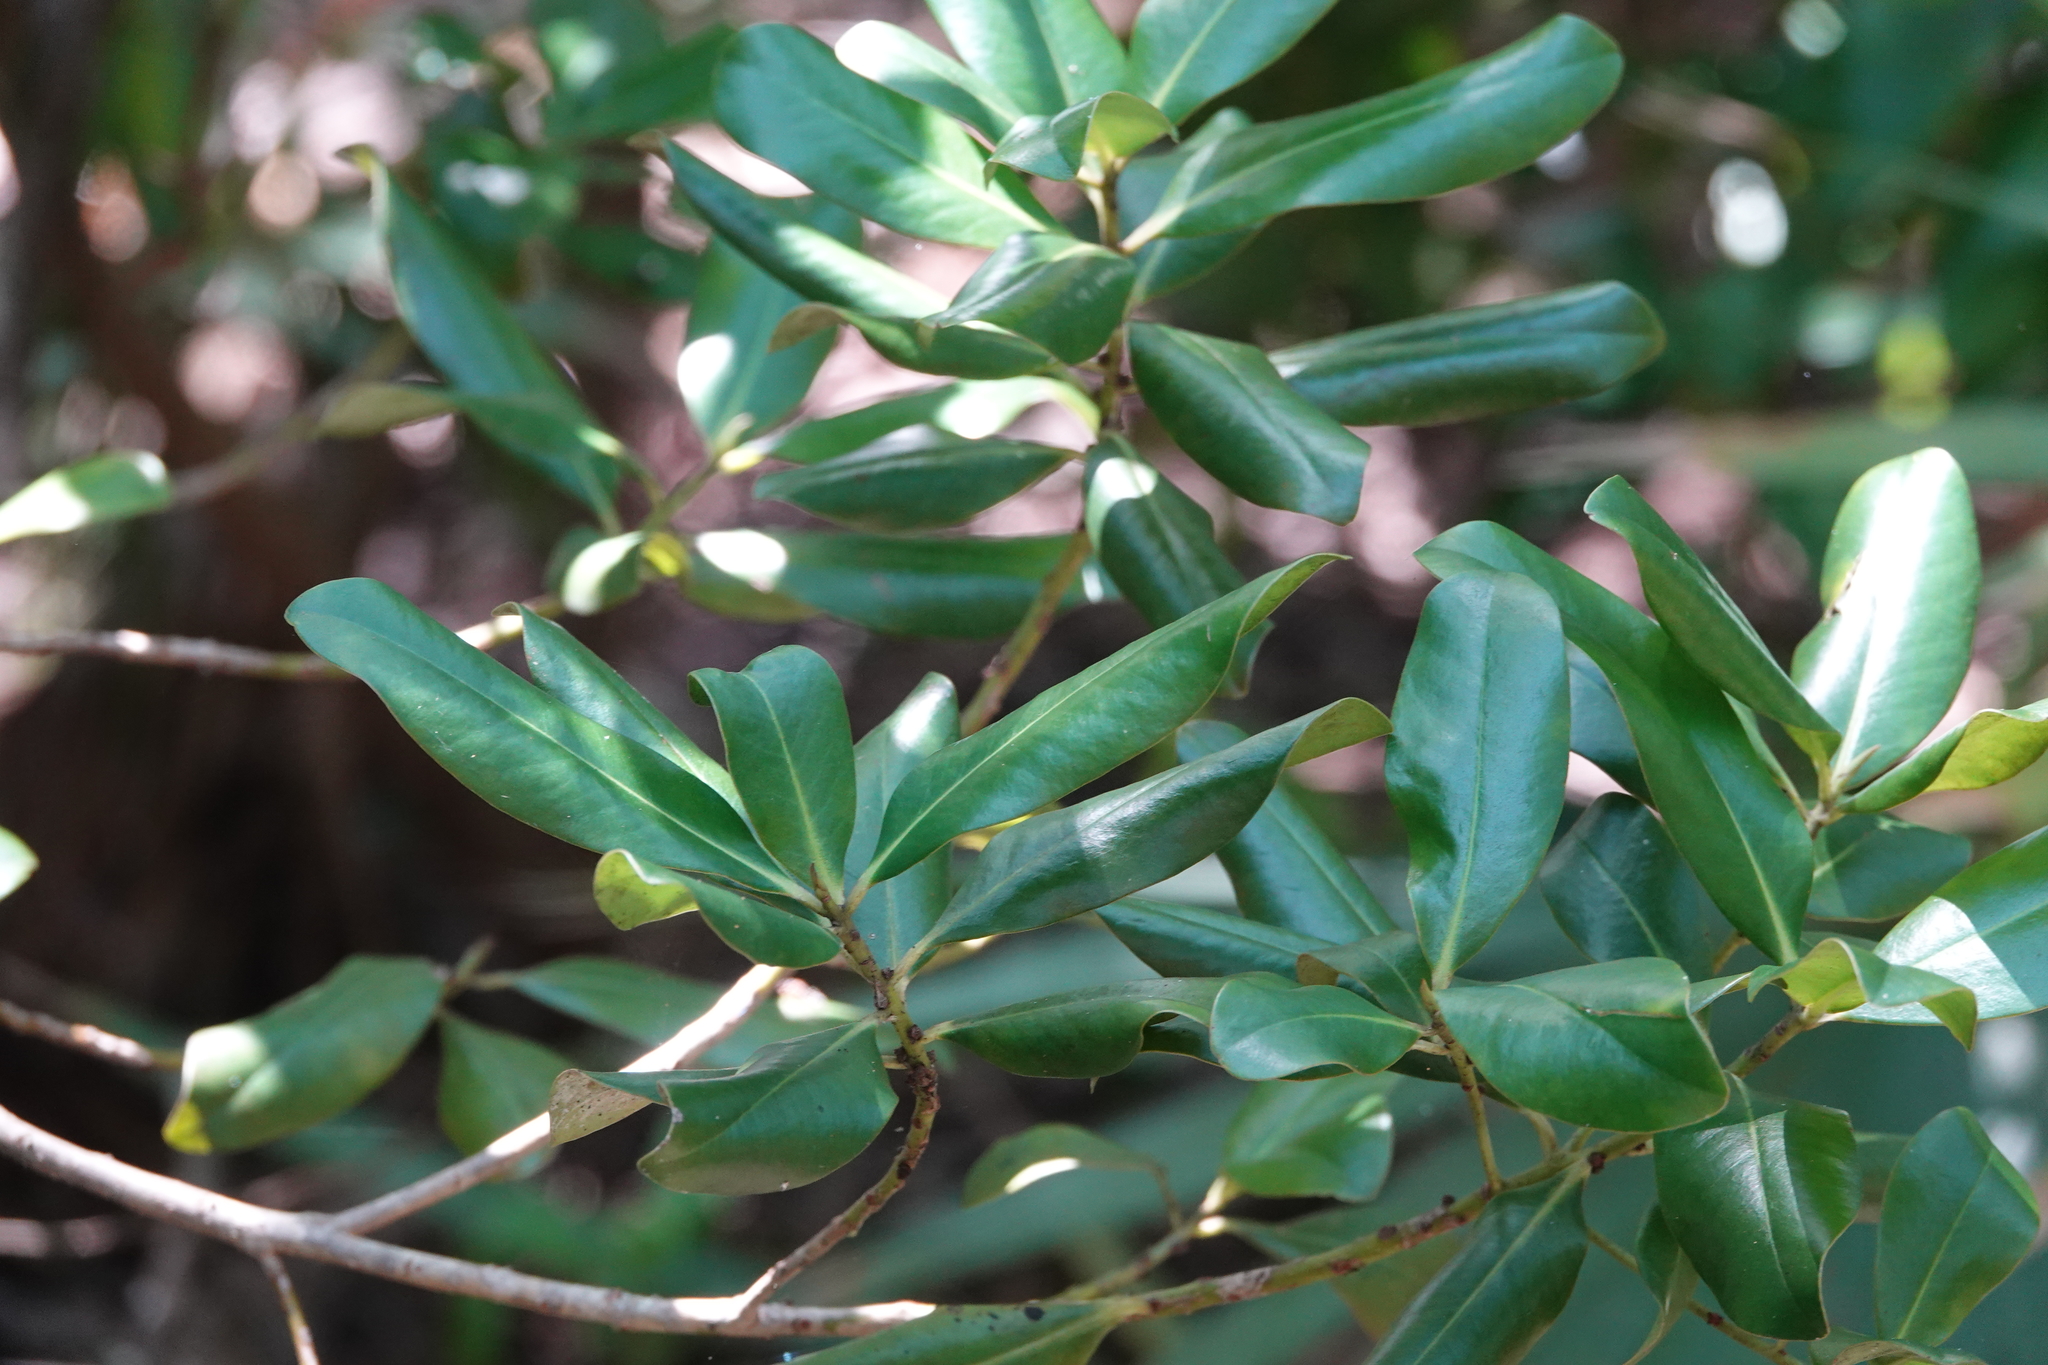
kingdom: Plantae
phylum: Tracheophyta
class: Magnoliopsida
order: Ericales
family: Primulaceae
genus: Myrsine
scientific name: Myrsine floridana
